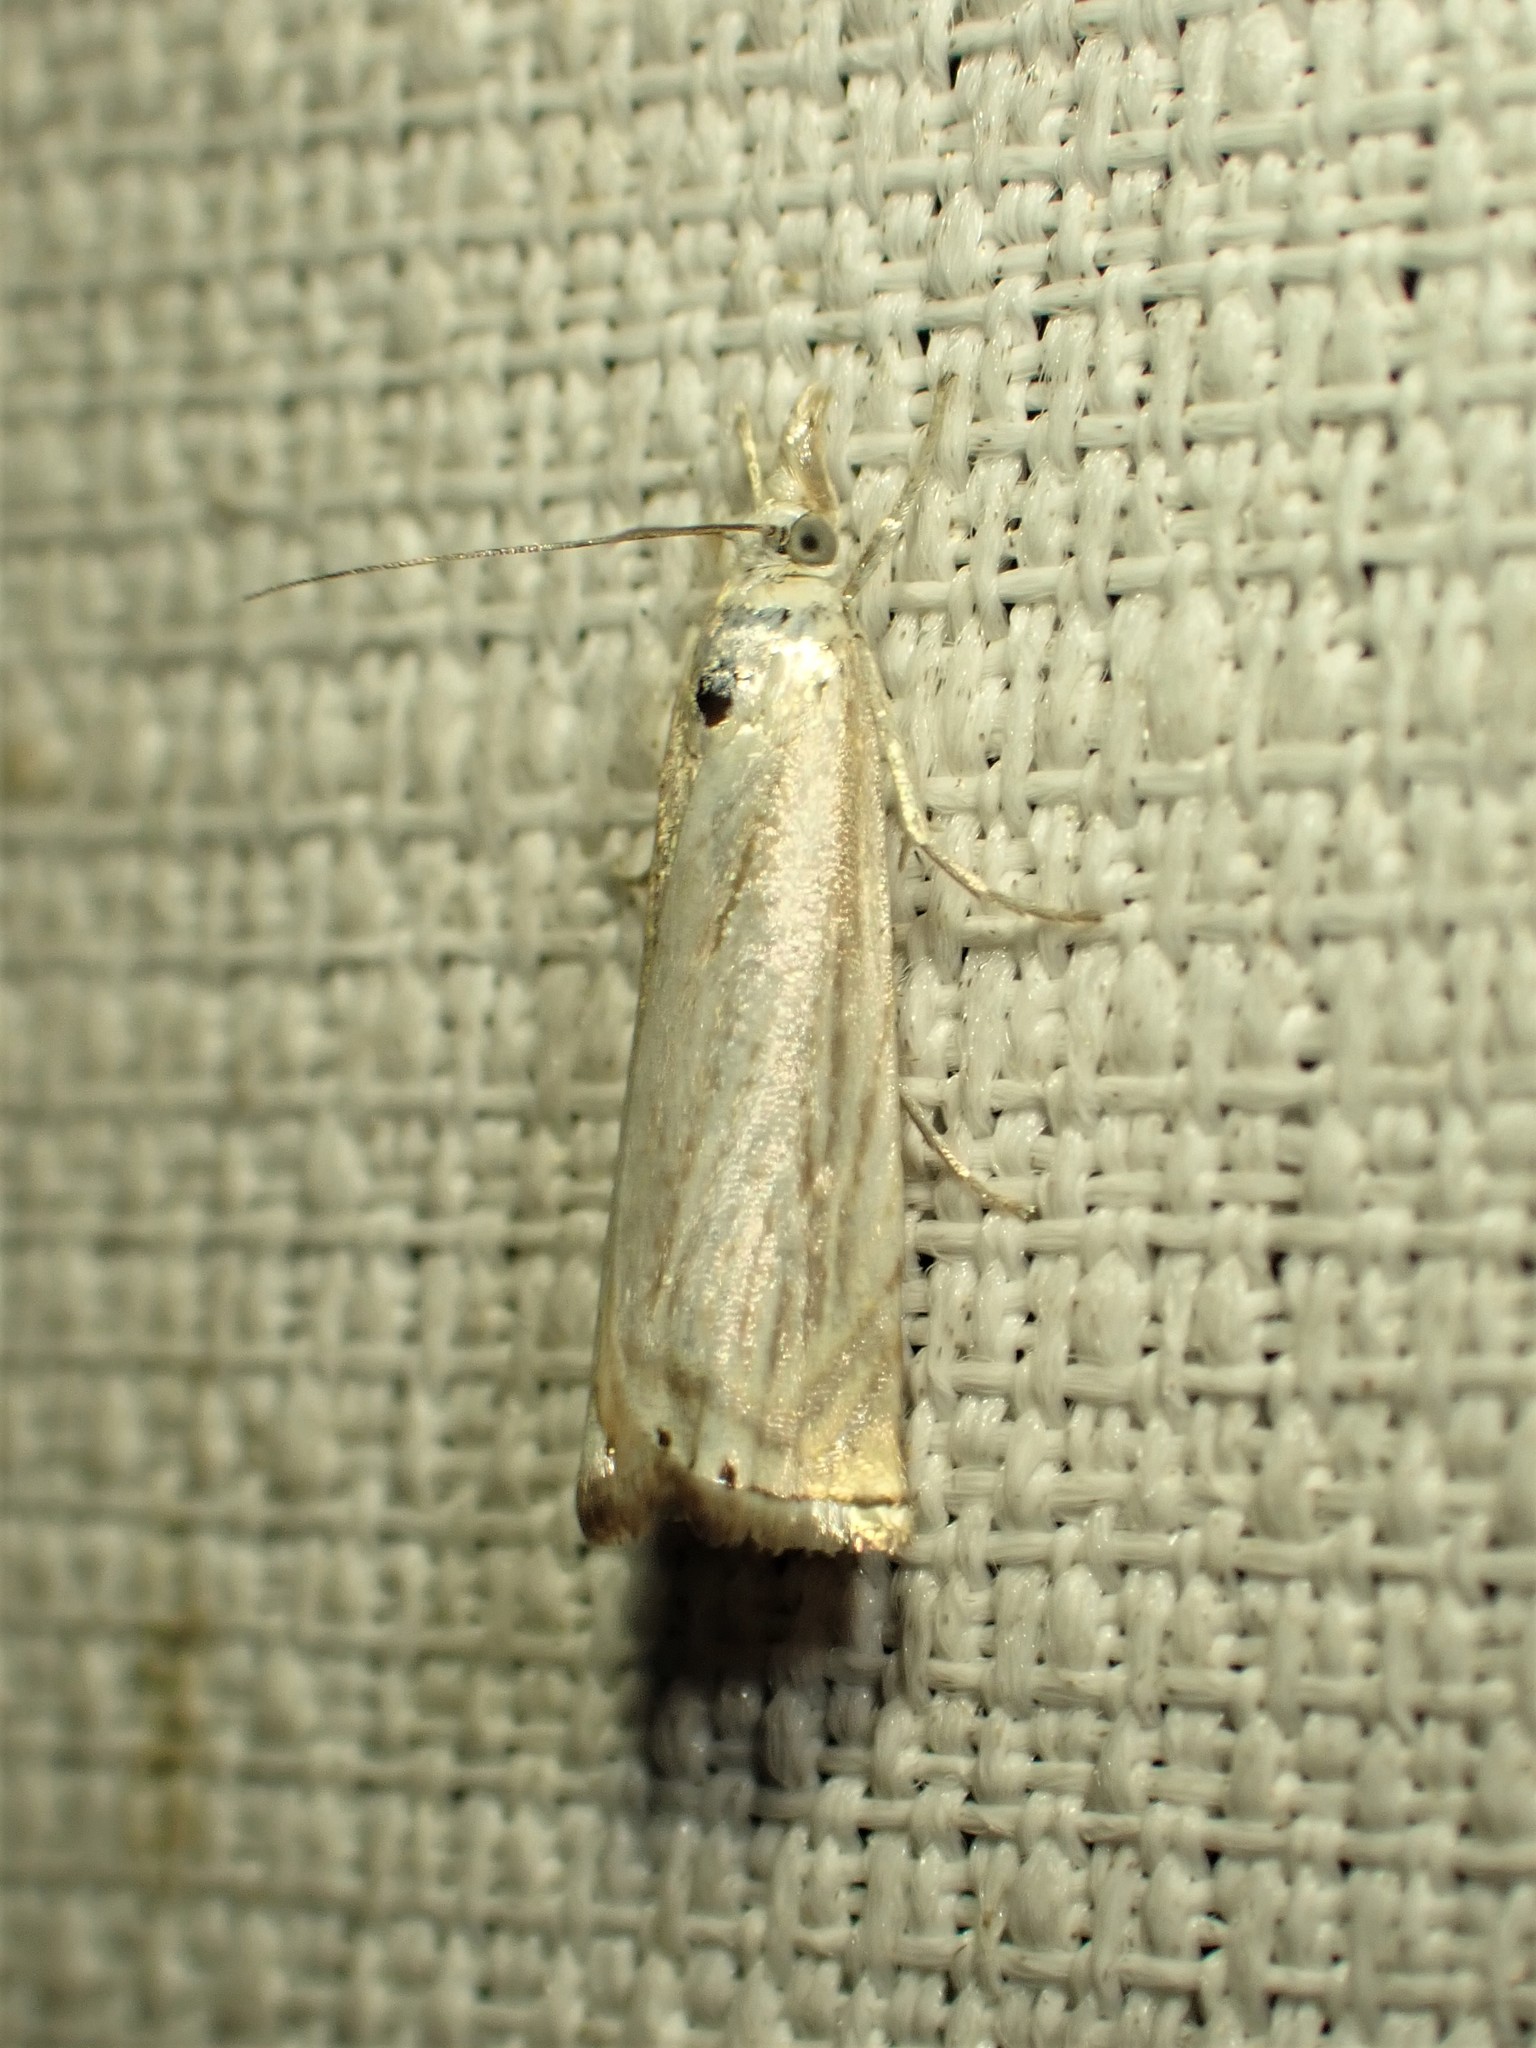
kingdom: Animalia
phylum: Arthropoda
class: Insecta
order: Lepidoptera
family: Crambidae
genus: Crambus
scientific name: Crambus albellus
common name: Small white grass-veneer
